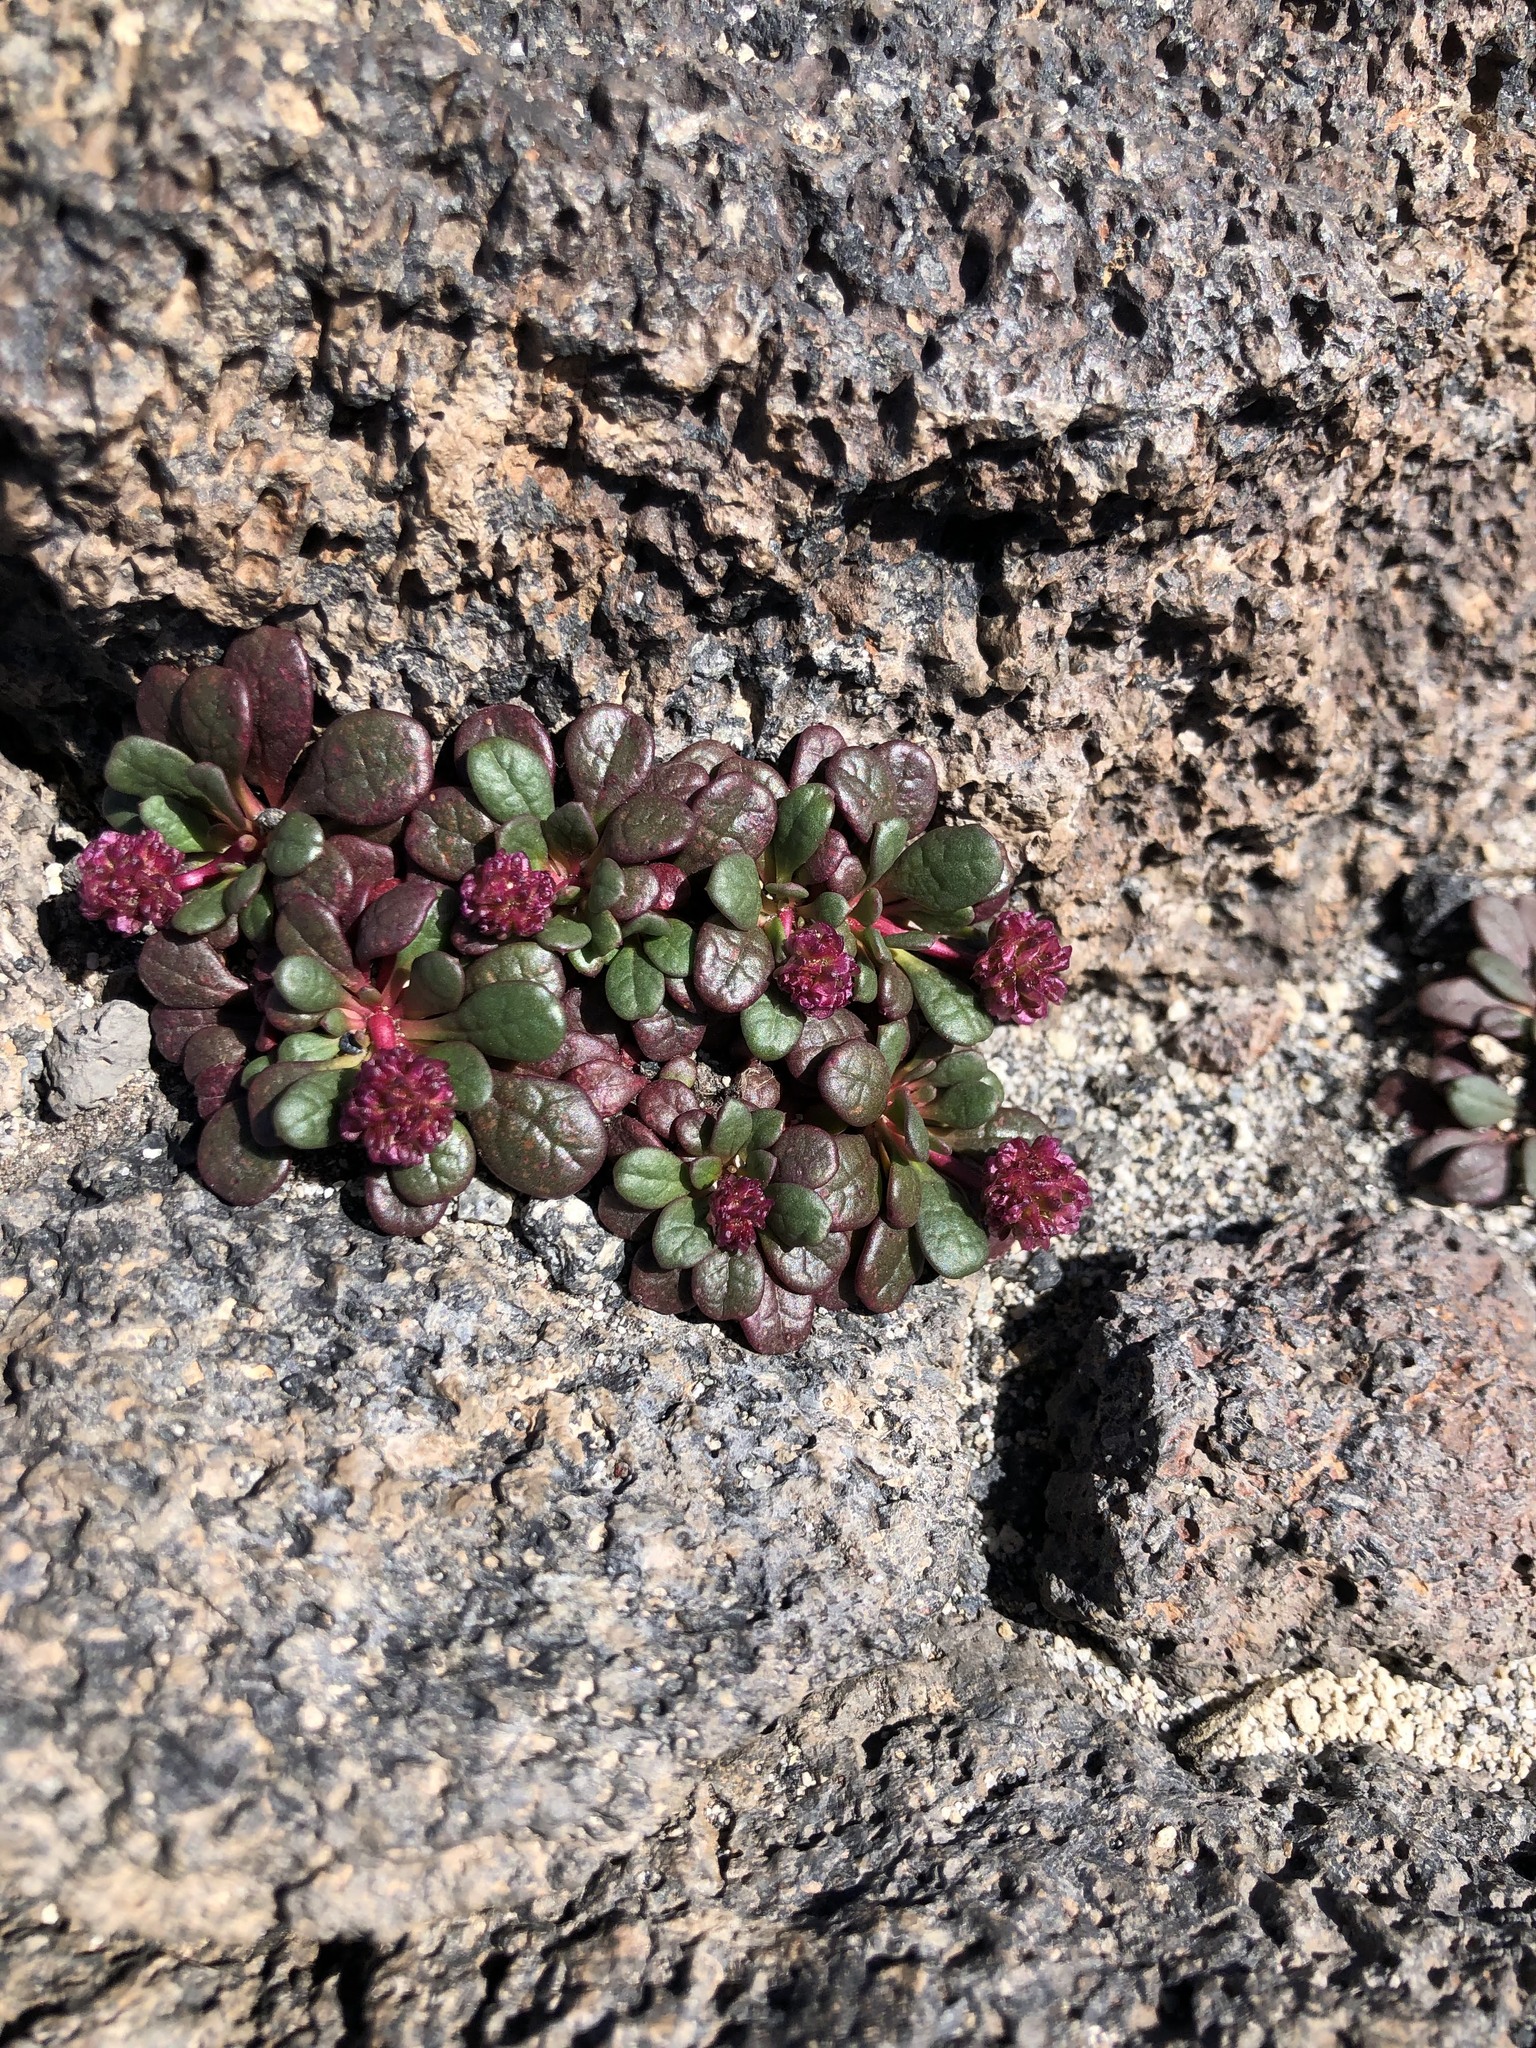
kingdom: Plantae
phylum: Tracheophyta
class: Magnoliopsida
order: Caryophyllales
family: Montiaceae
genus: Calyptridium
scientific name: Calyptridium umbellatum
